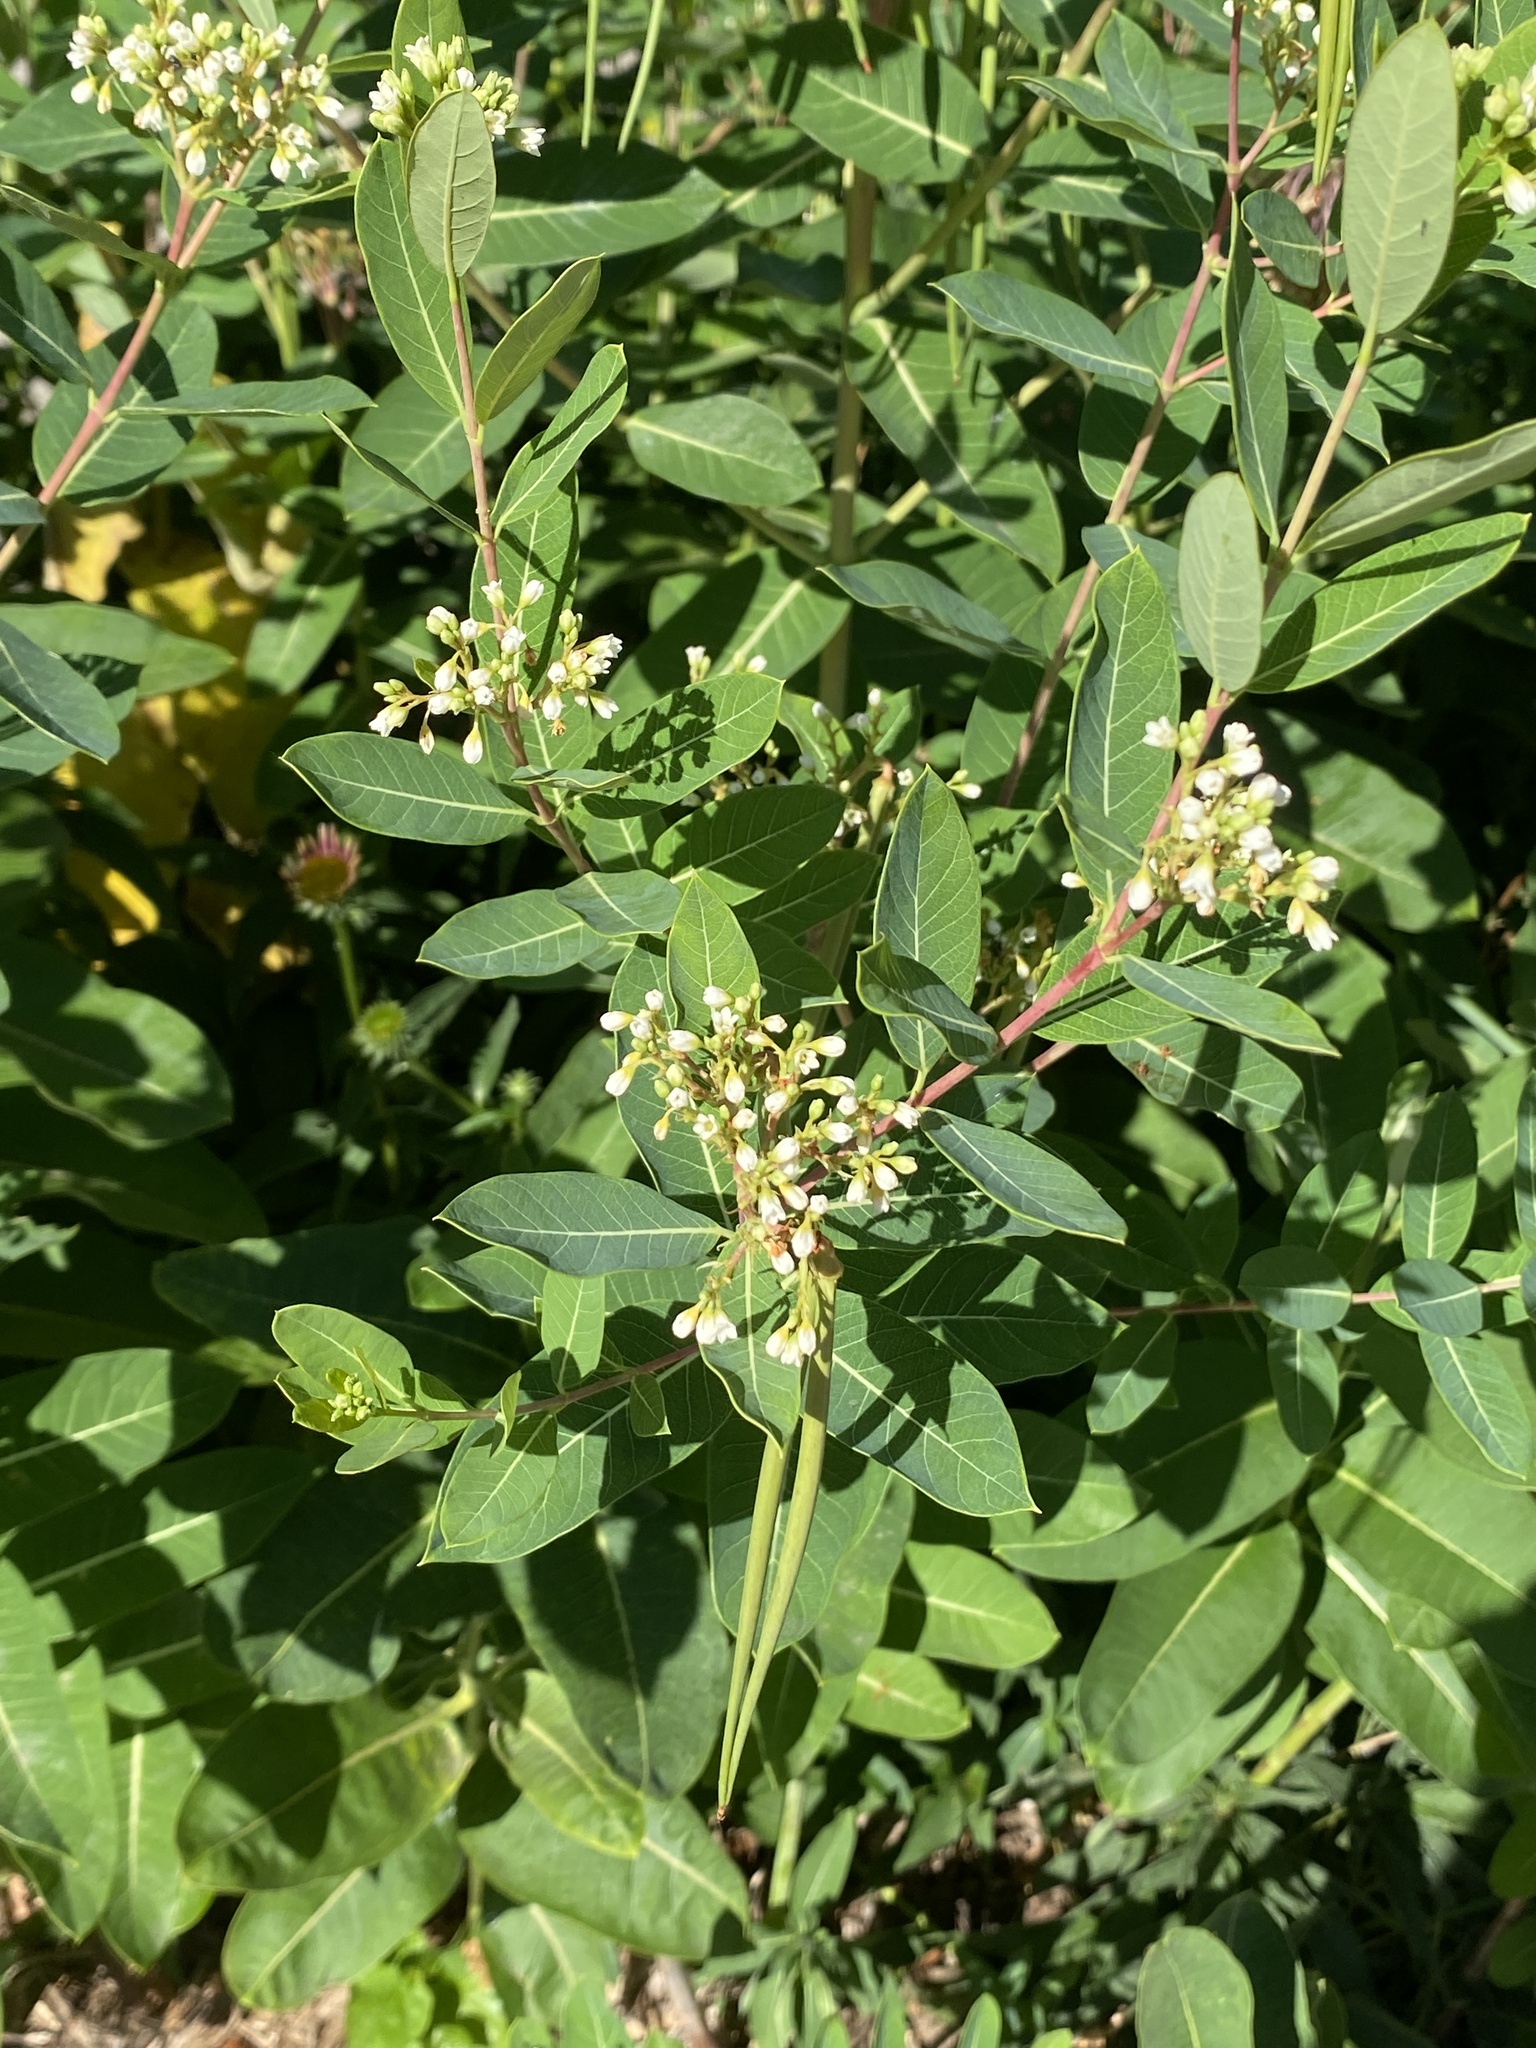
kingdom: Plantae
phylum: Tracheophyta
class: Magnoliopsida
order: Gentianales
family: Apocynaceae
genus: Apocynum
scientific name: Apocynum cannabinum
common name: Hemp dogbane
